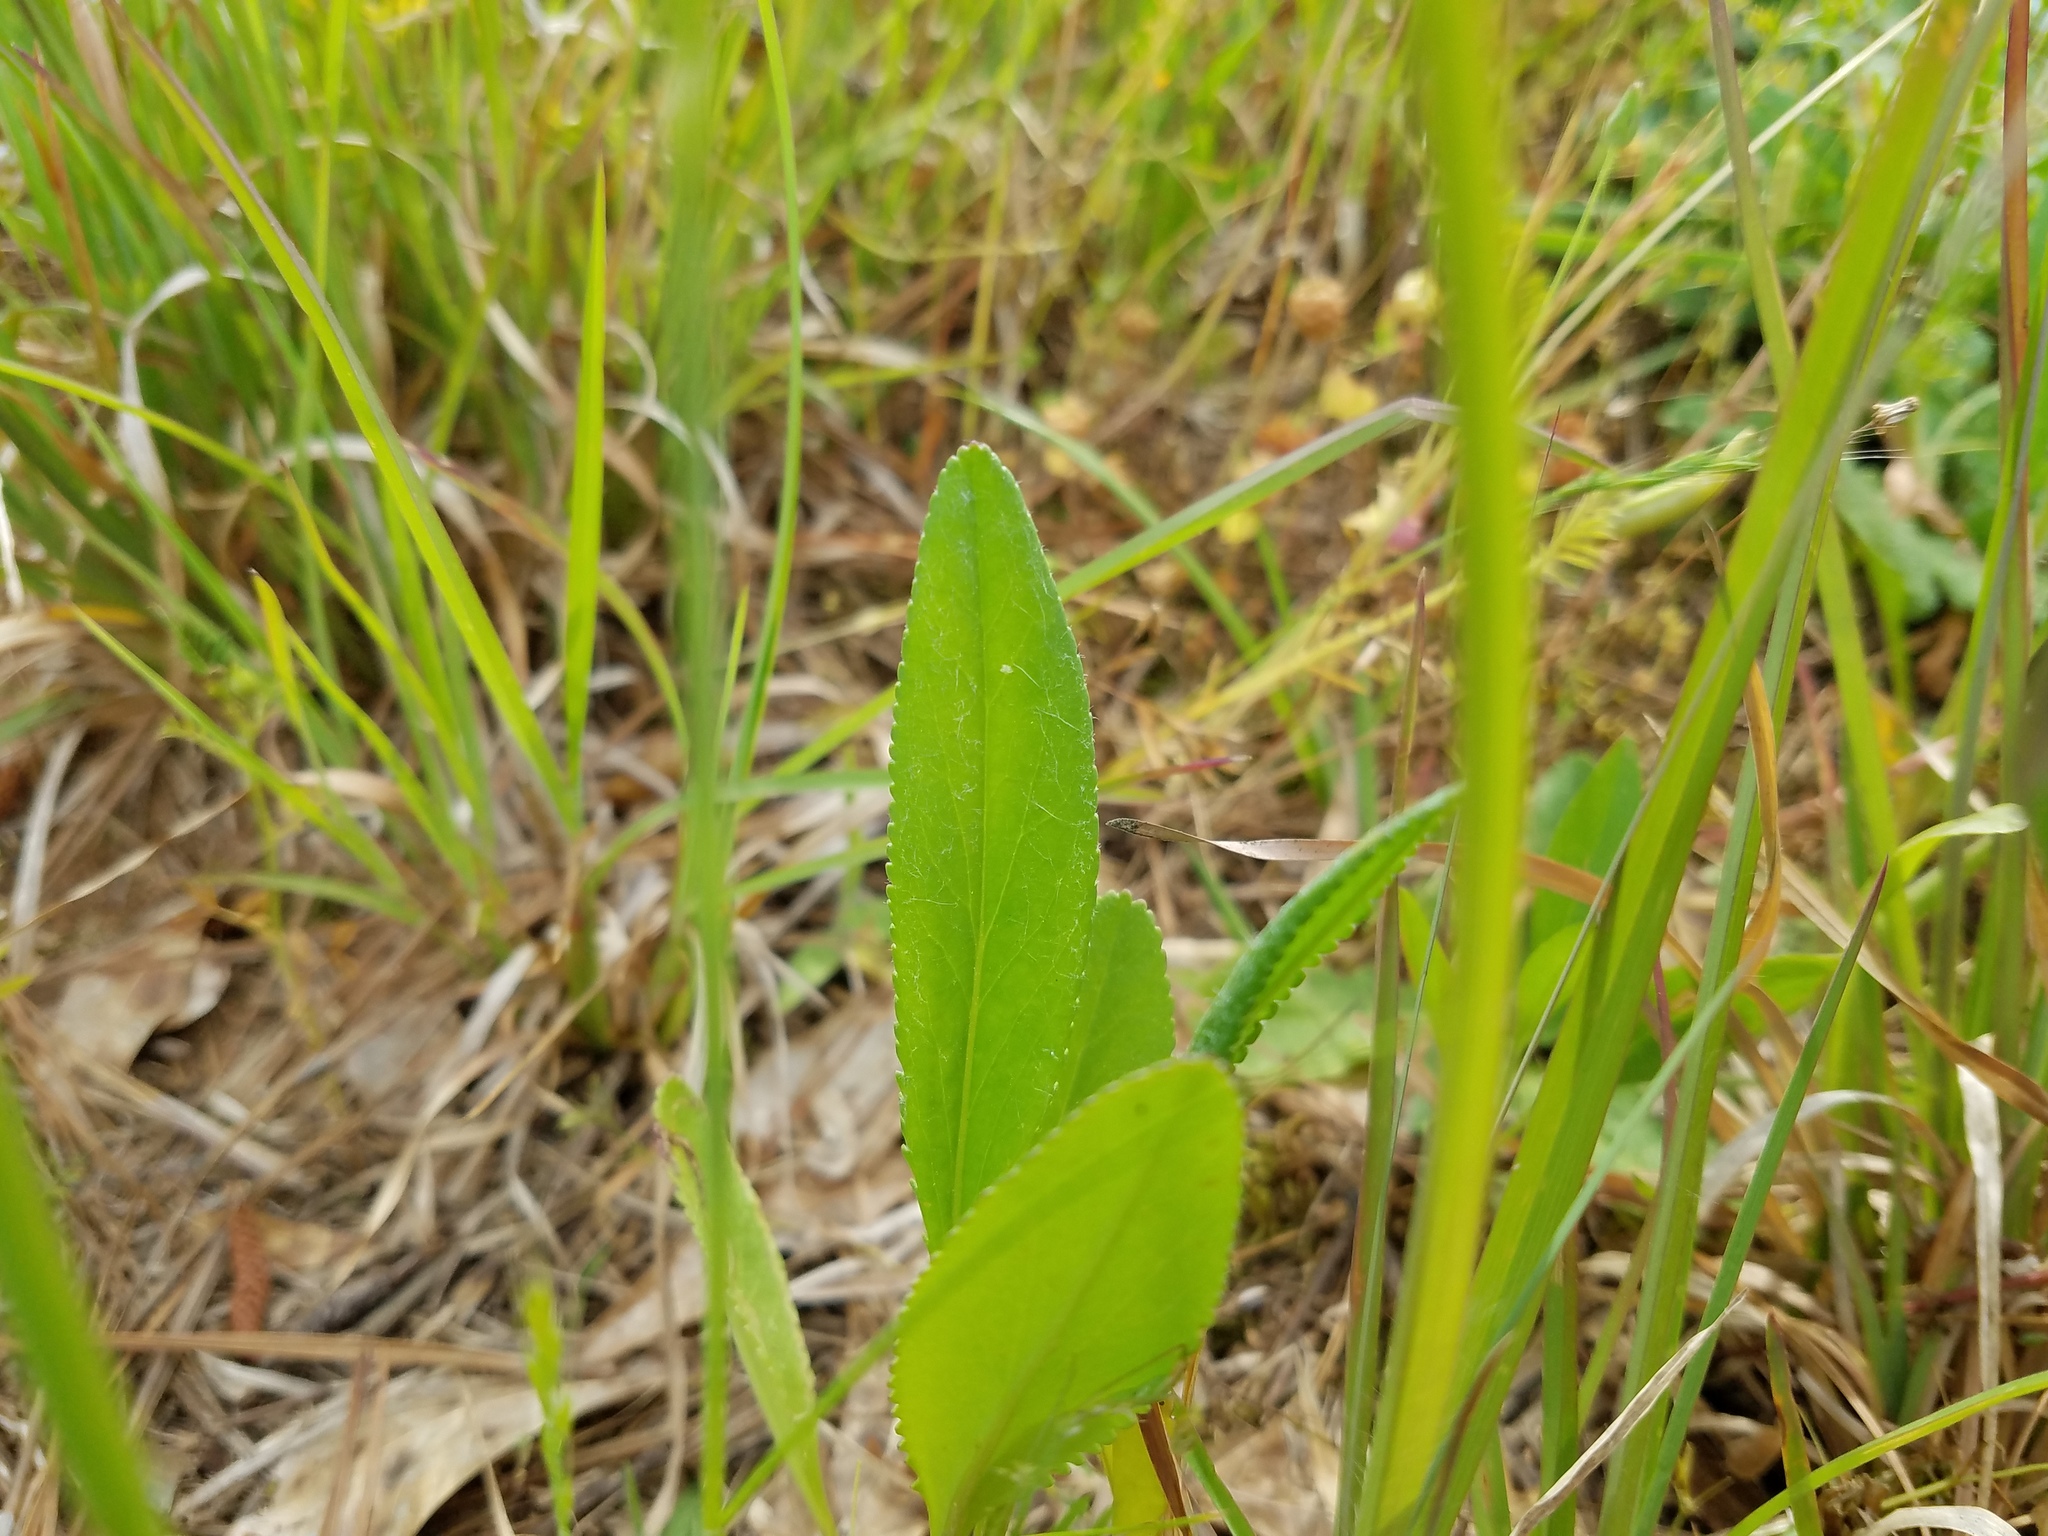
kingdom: Plantae
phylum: Tracheophyta
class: Magnoliopsida
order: Asterales
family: Asteraceae
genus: Packera
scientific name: Packera anonyma
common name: Small ragwort
